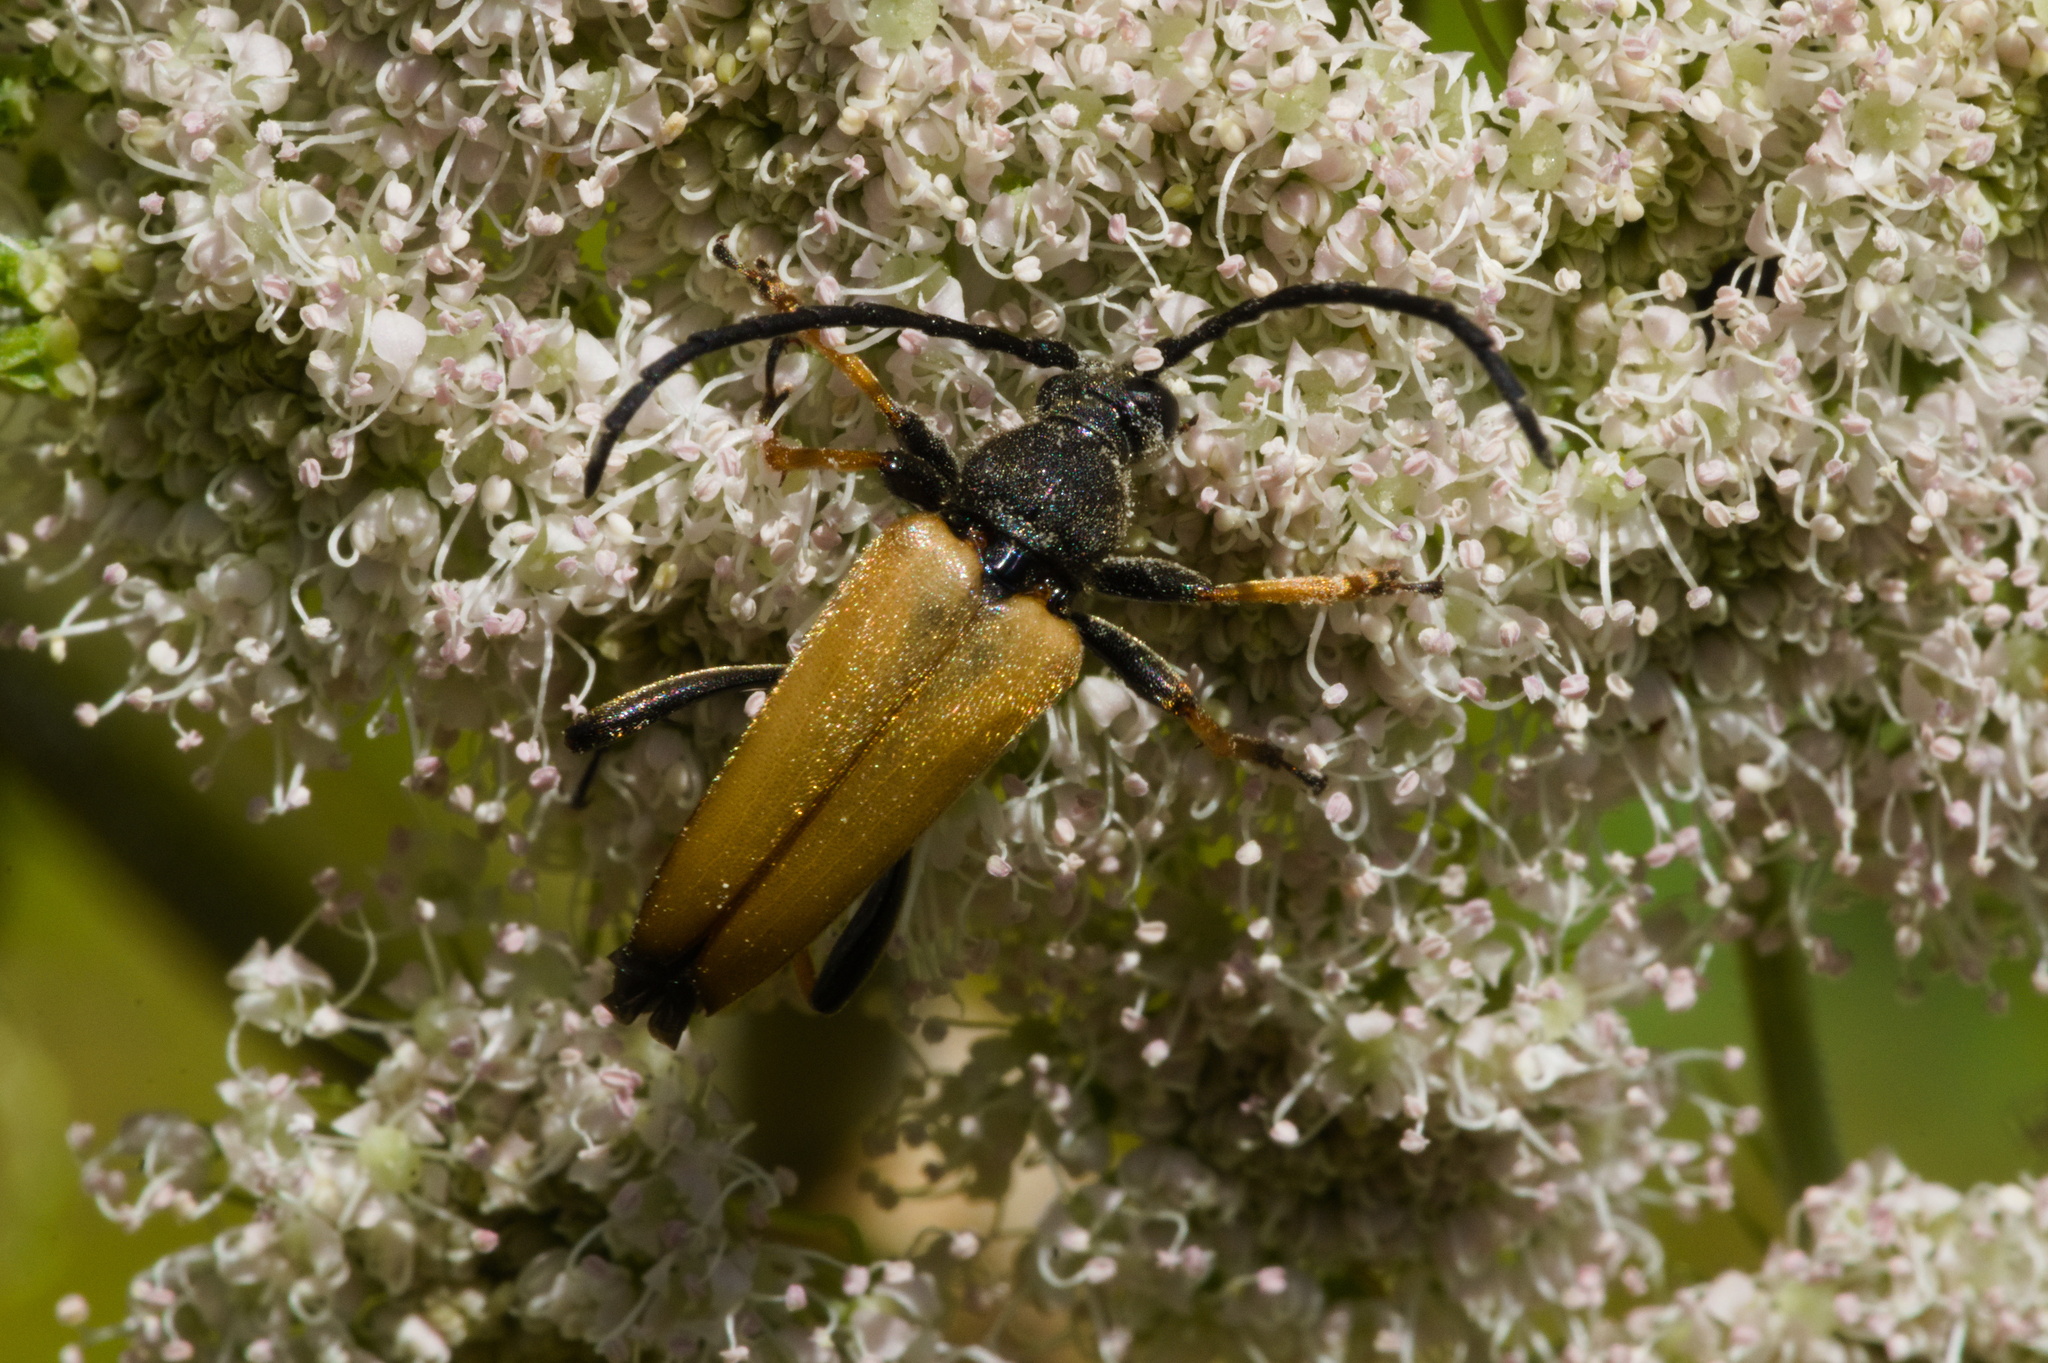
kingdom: Animalia
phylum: Arthropoda
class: Insecta
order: Coleoptera
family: Cerambycidae
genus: Stictoleptura
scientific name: Stictoleptura rubra
